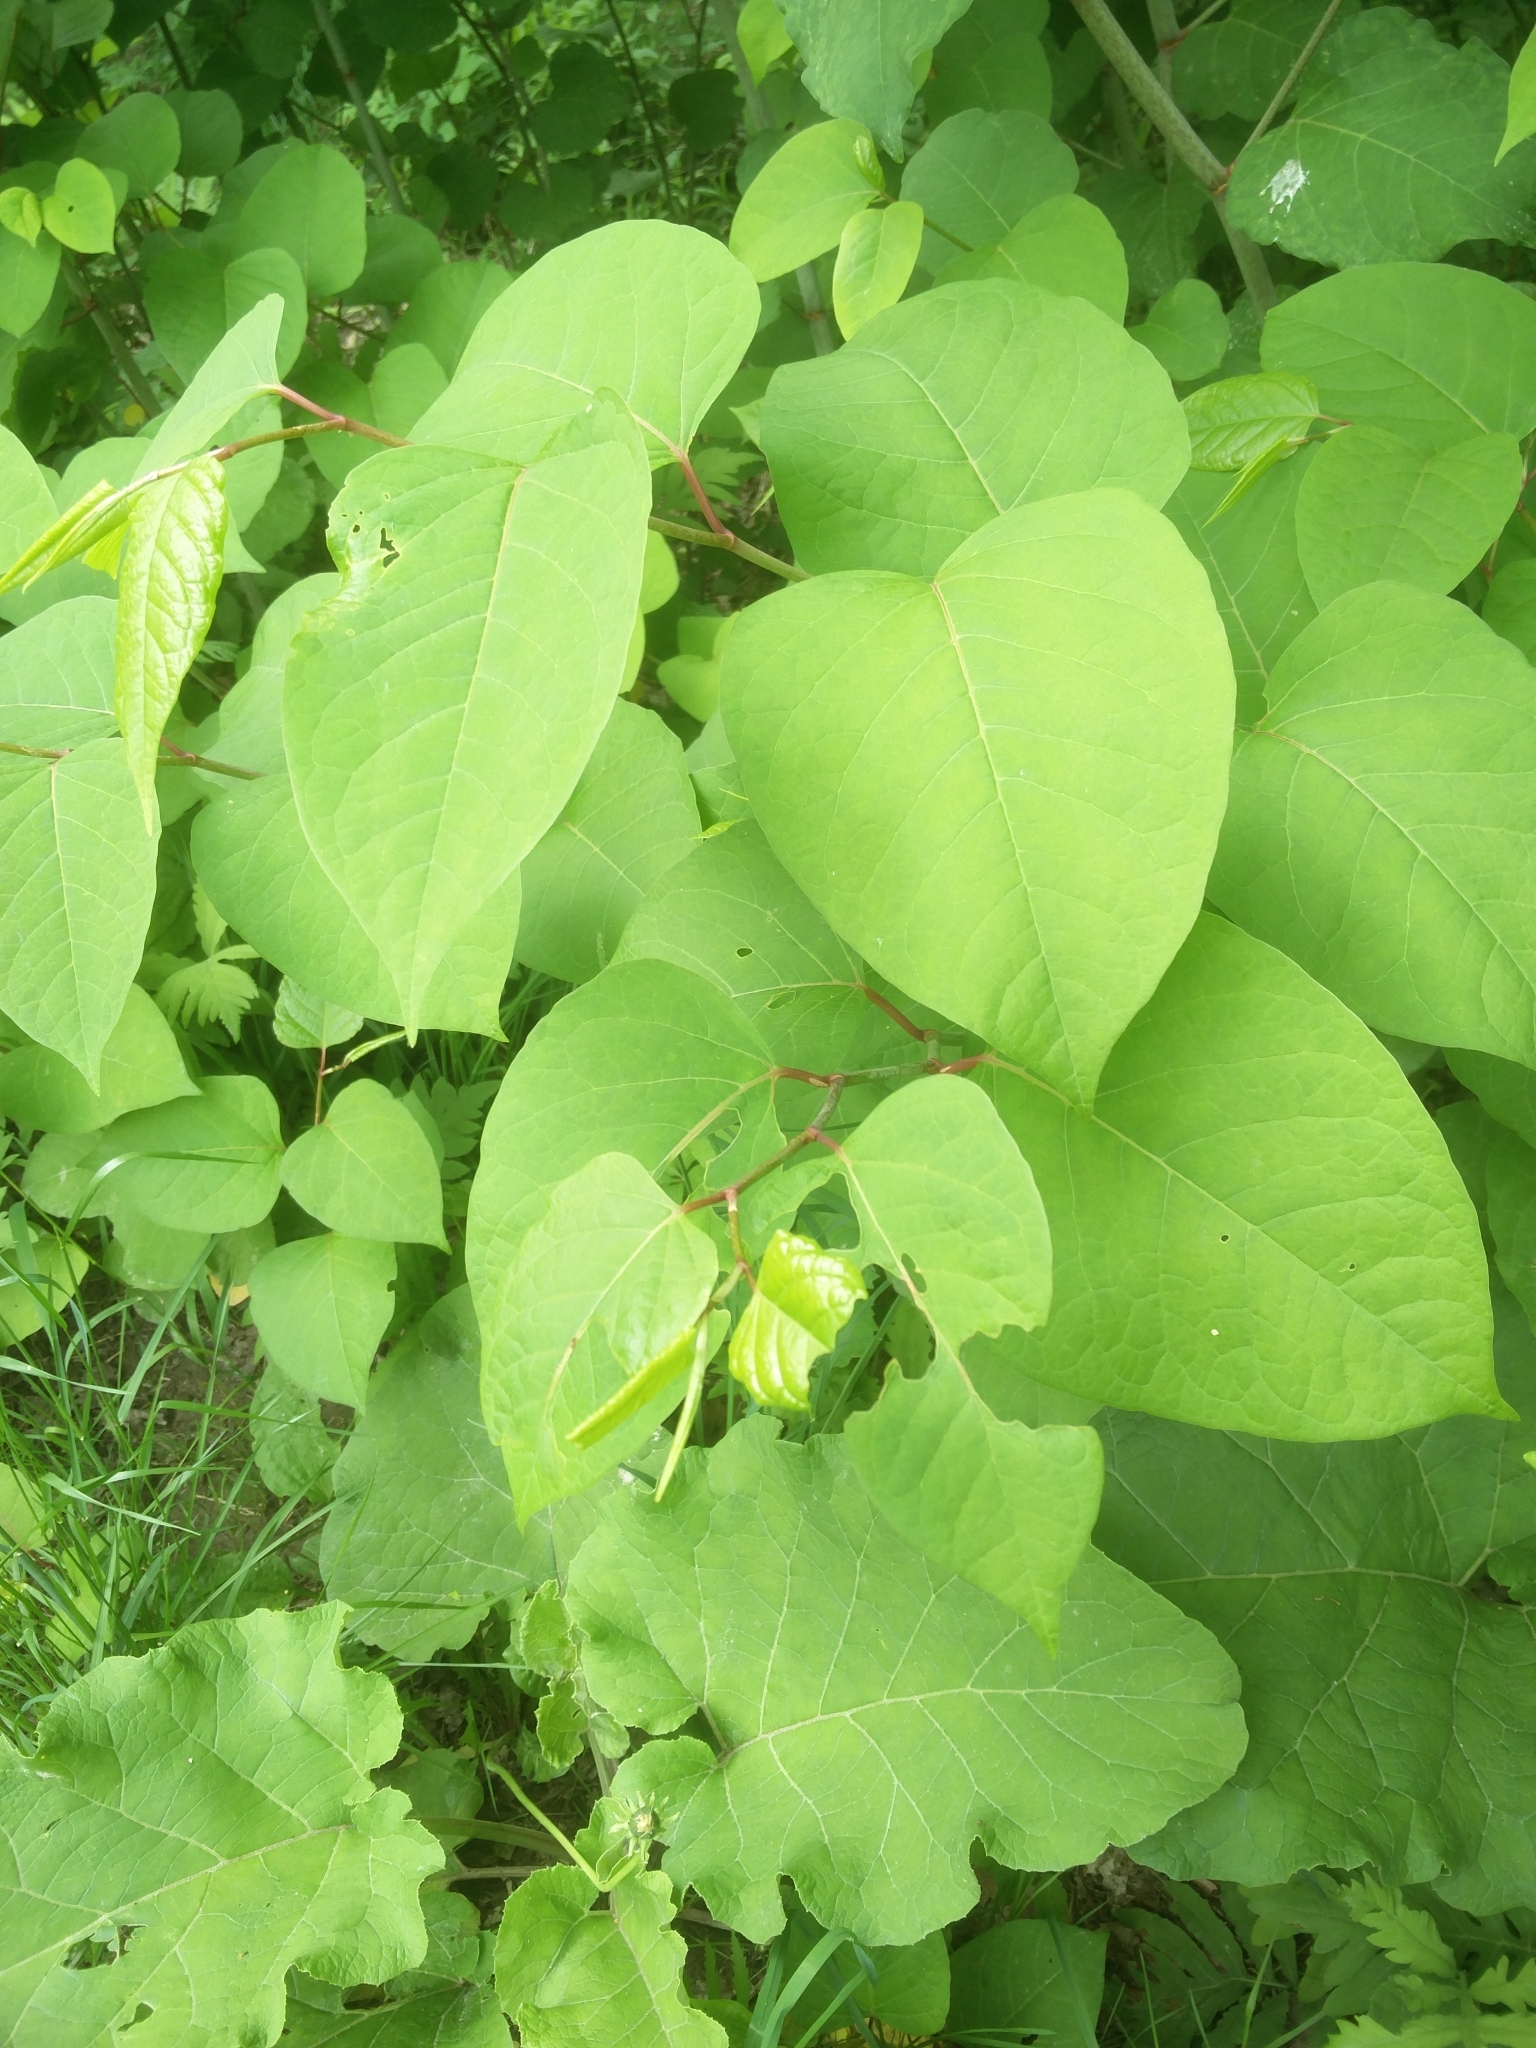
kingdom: Plantae
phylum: Tracheophyta
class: Magnoliopsida
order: Caryophyllales
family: Polygonaceae
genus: Reynoutria
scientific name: Reynoutria japonica
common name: Japanese knotweed
